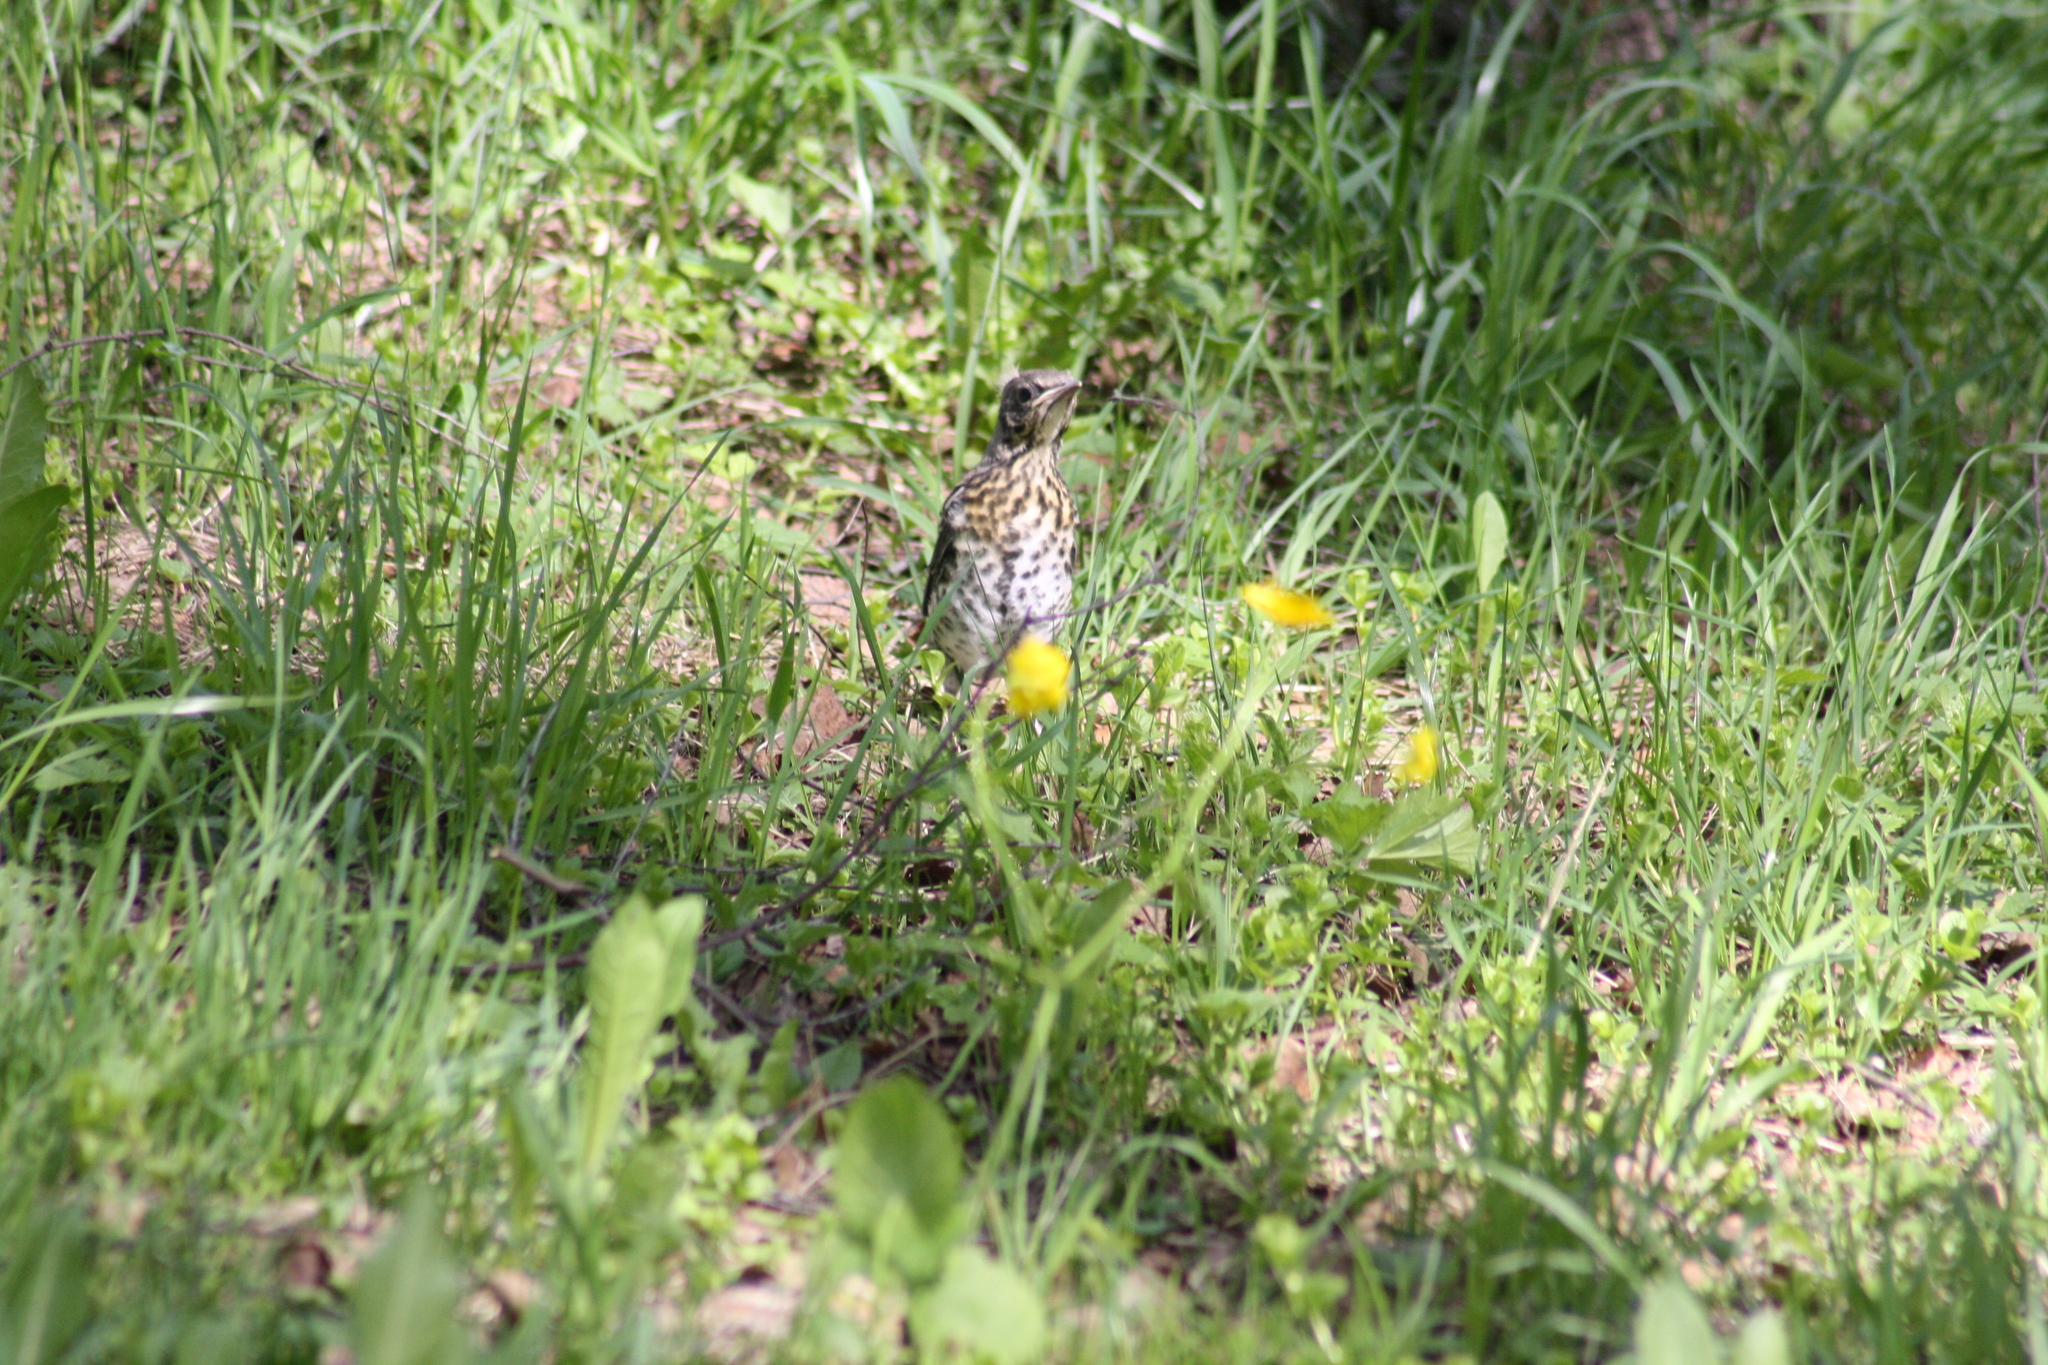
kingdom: Animalia
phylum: Chordata
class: Aves
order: Passeriformes
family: Turdidae
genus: Turdus
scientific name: Turdus philomelos
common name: Song thrush
